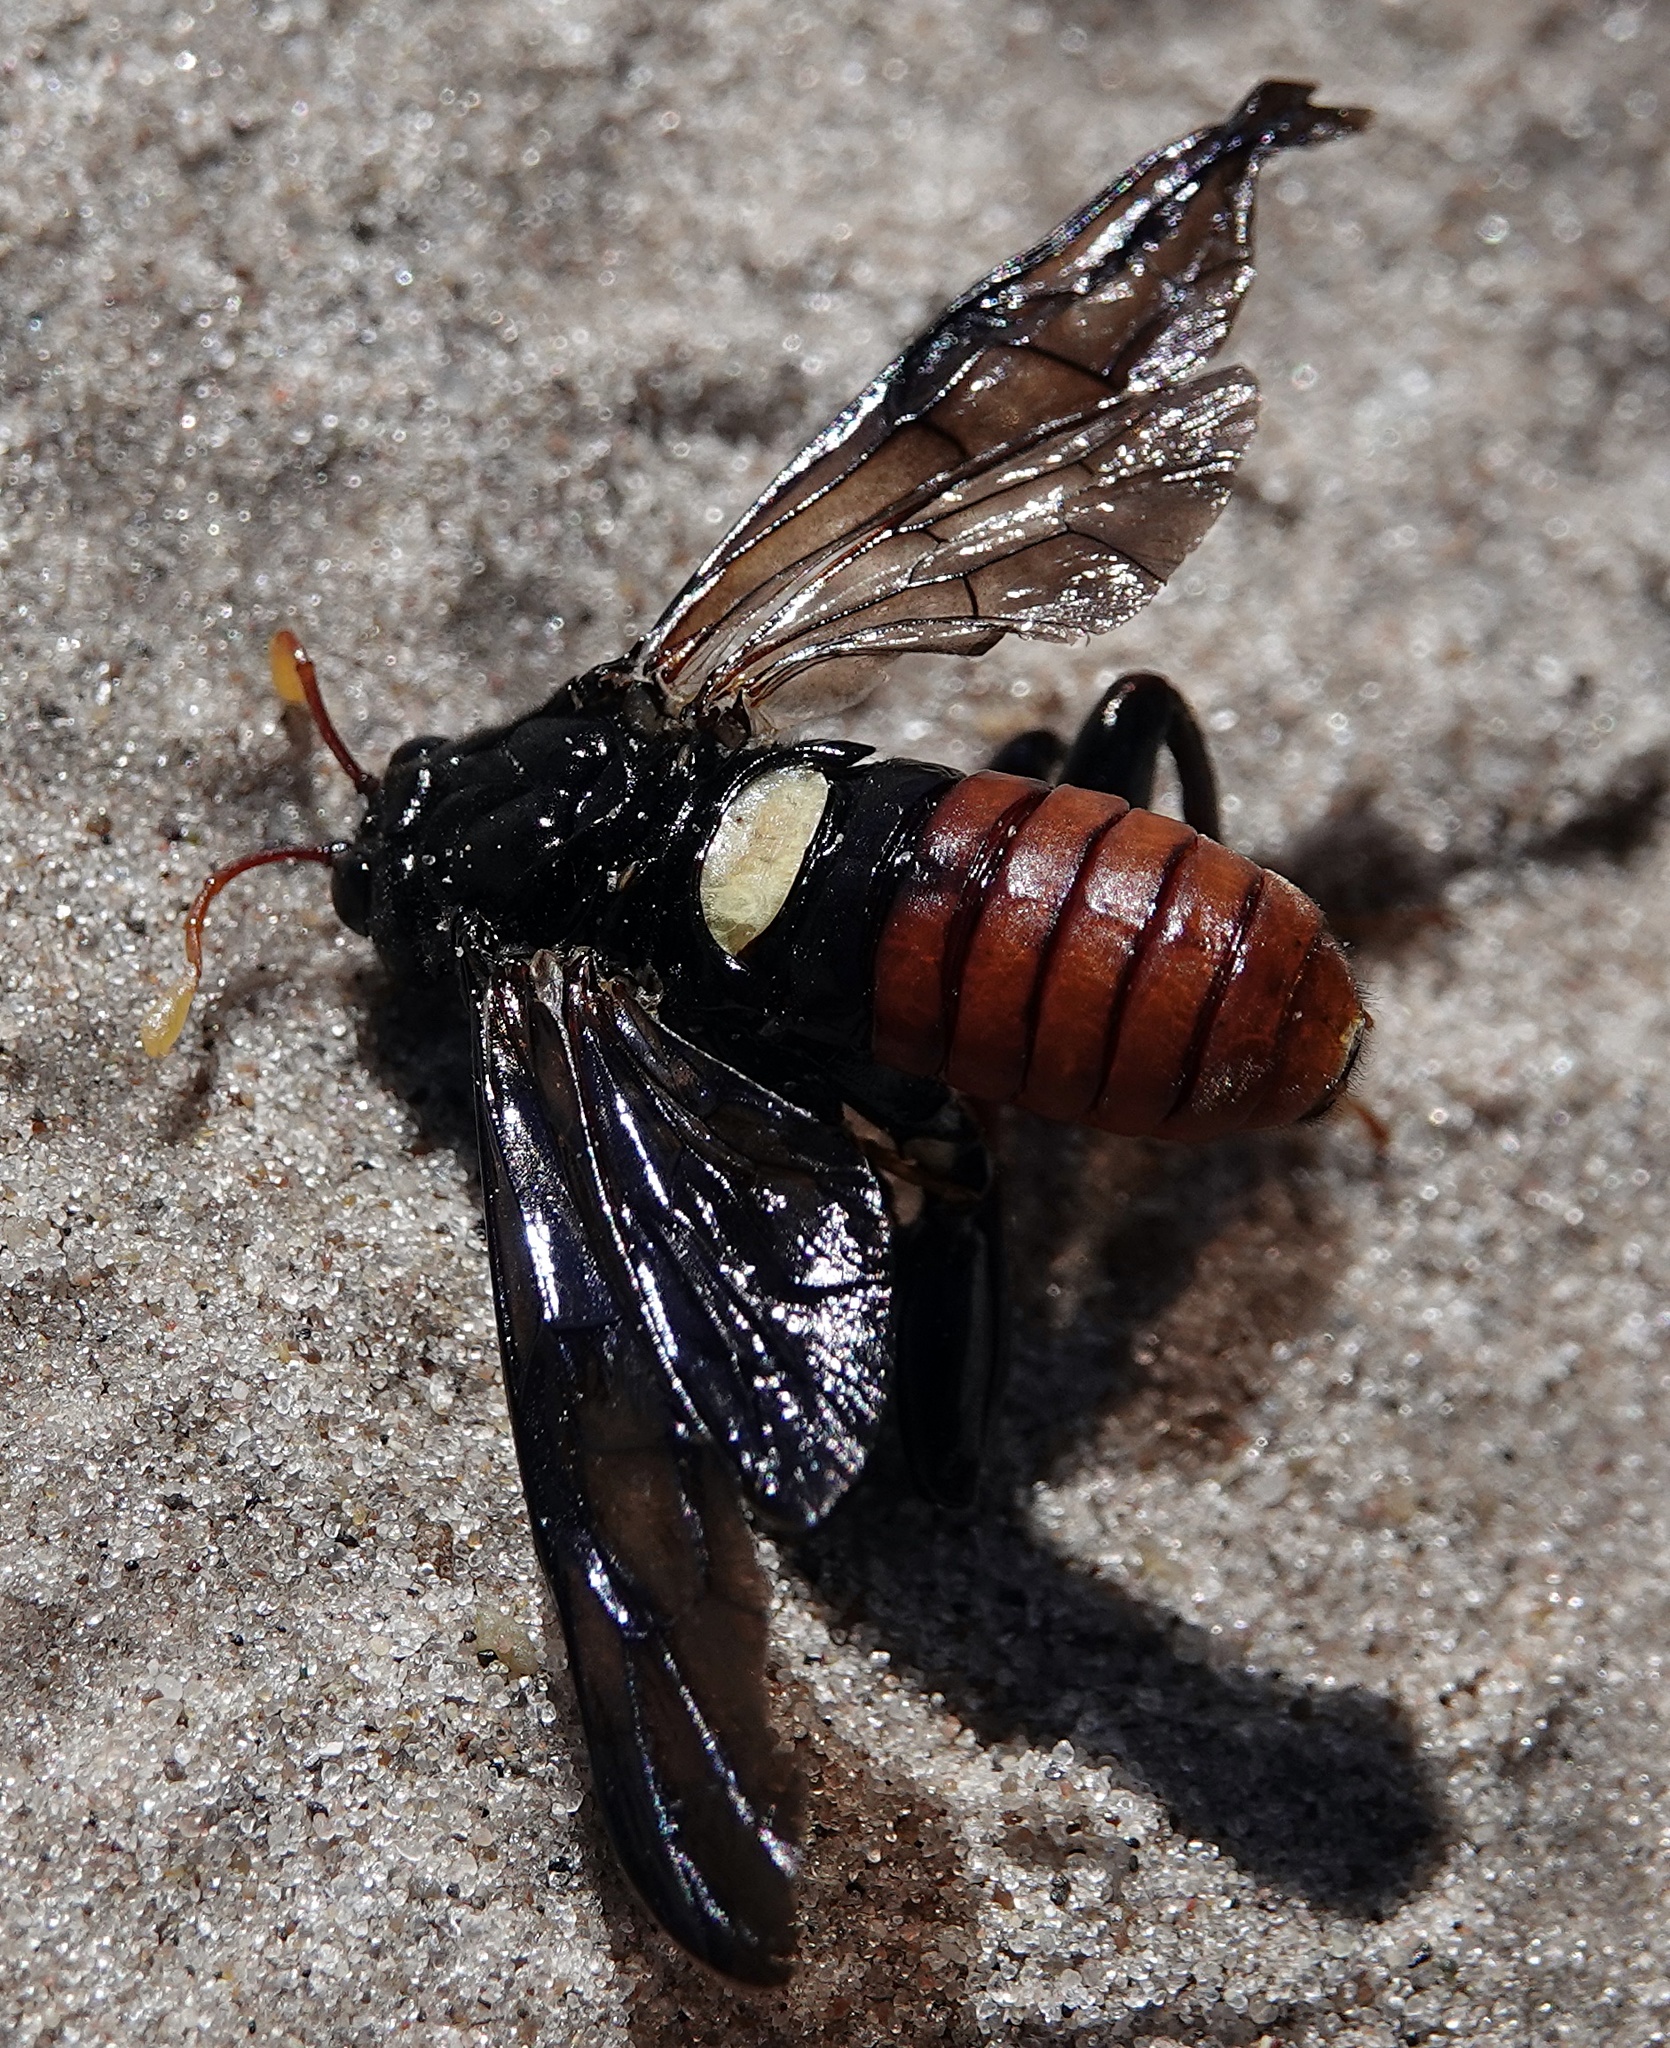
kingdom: Animalia
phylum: Arthropoda
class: Insecta
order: Hymenoptera
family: Cimbicidae
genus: Cimbex
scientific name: Cimbex americana
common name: Elm sawfly
